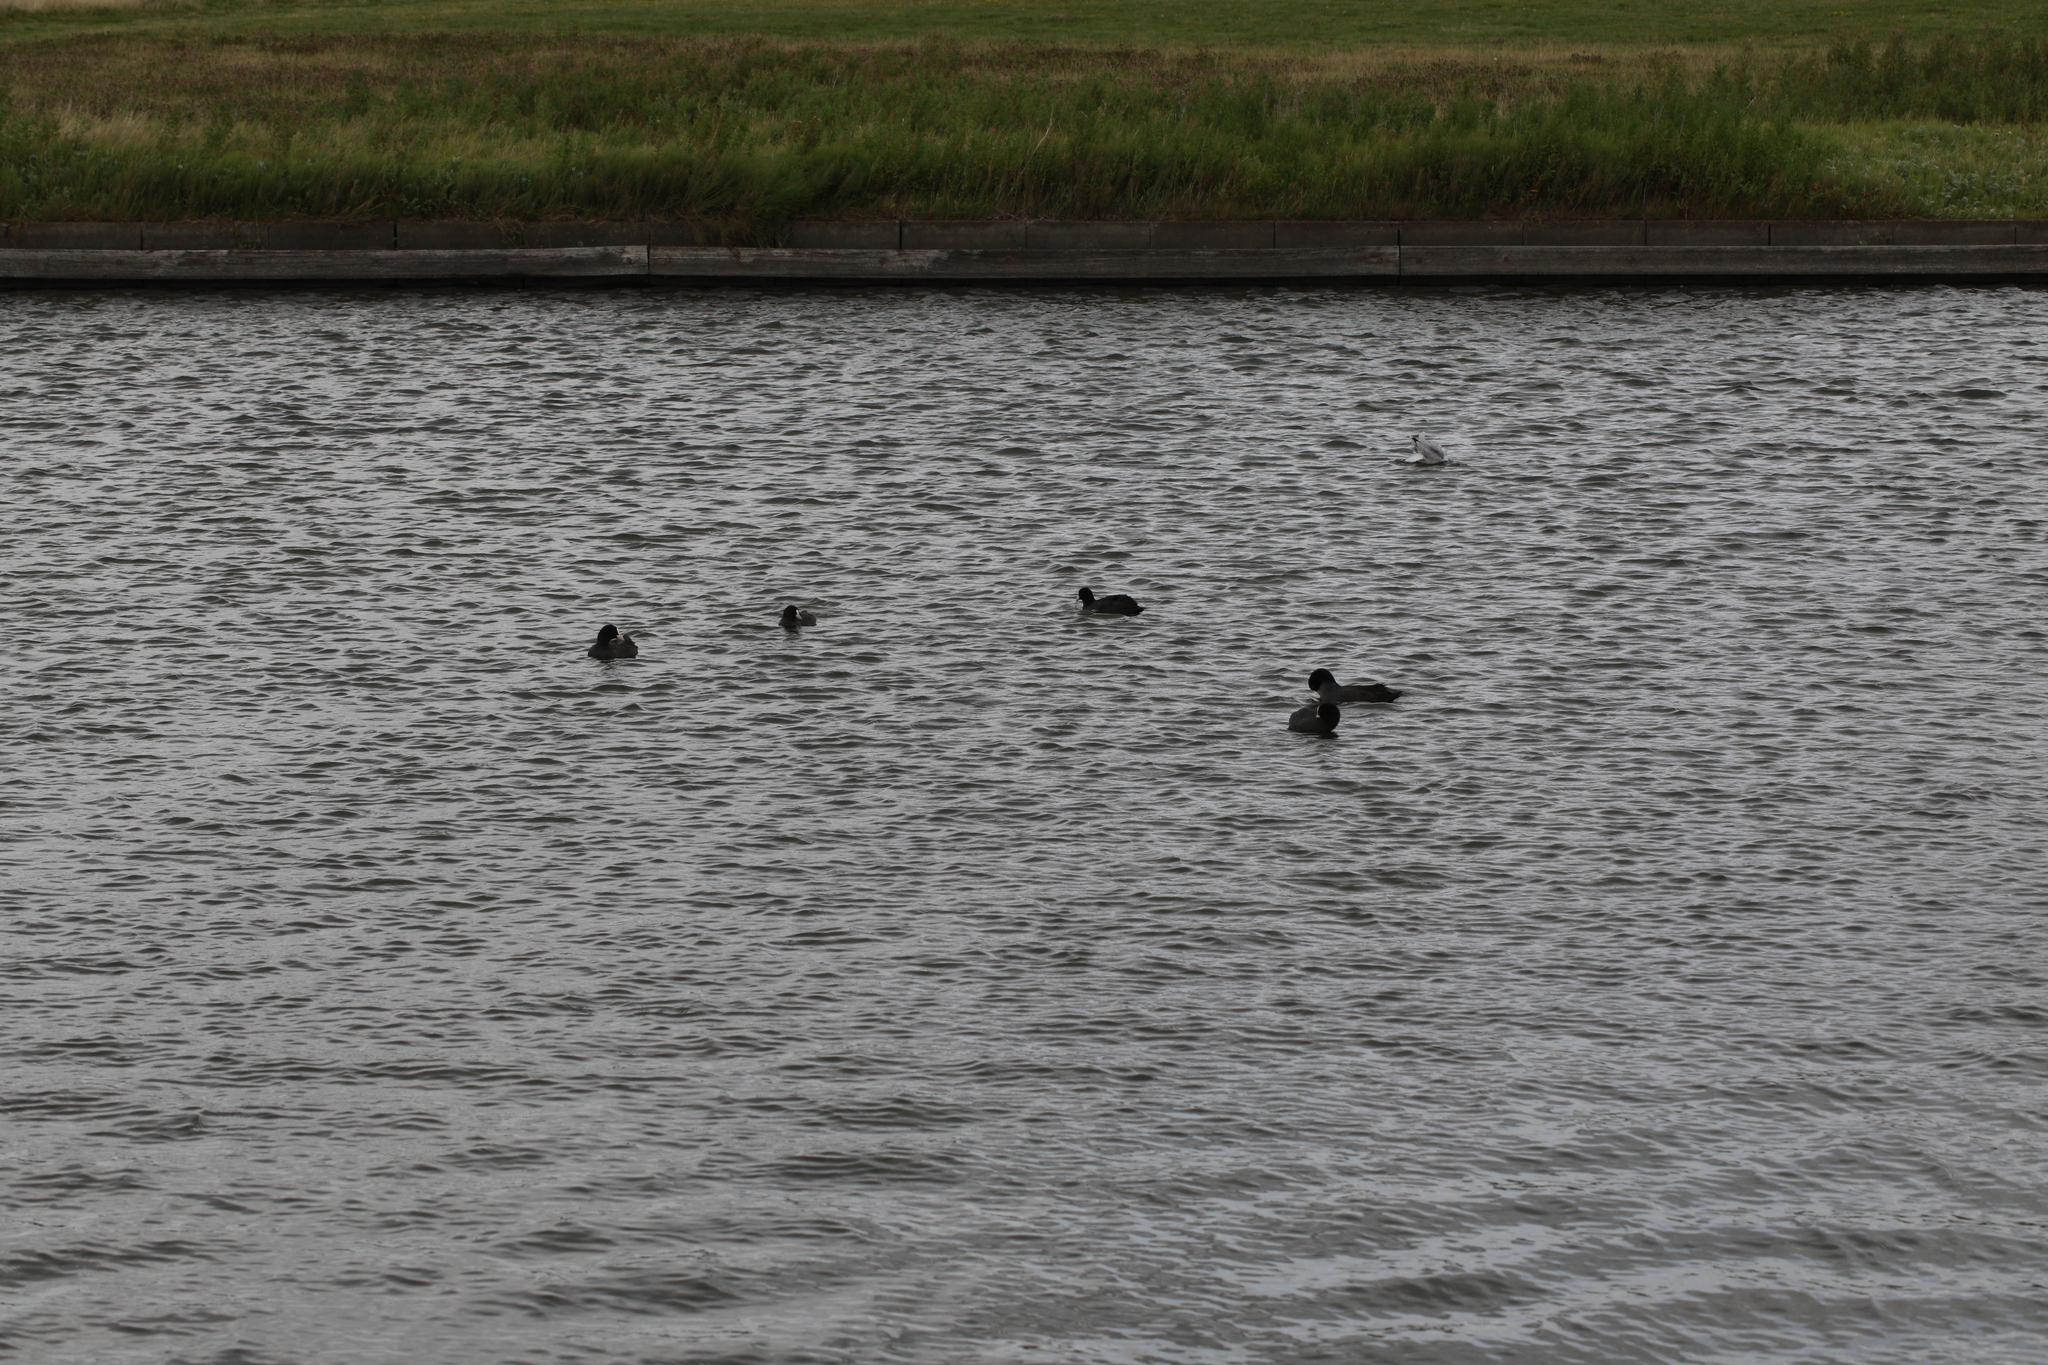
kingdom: Animalia
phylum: Chordata
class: Aves
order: Gruiformes
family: Rallidae
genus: Fulica
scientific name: Fulica atra
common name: Eurasian coot
